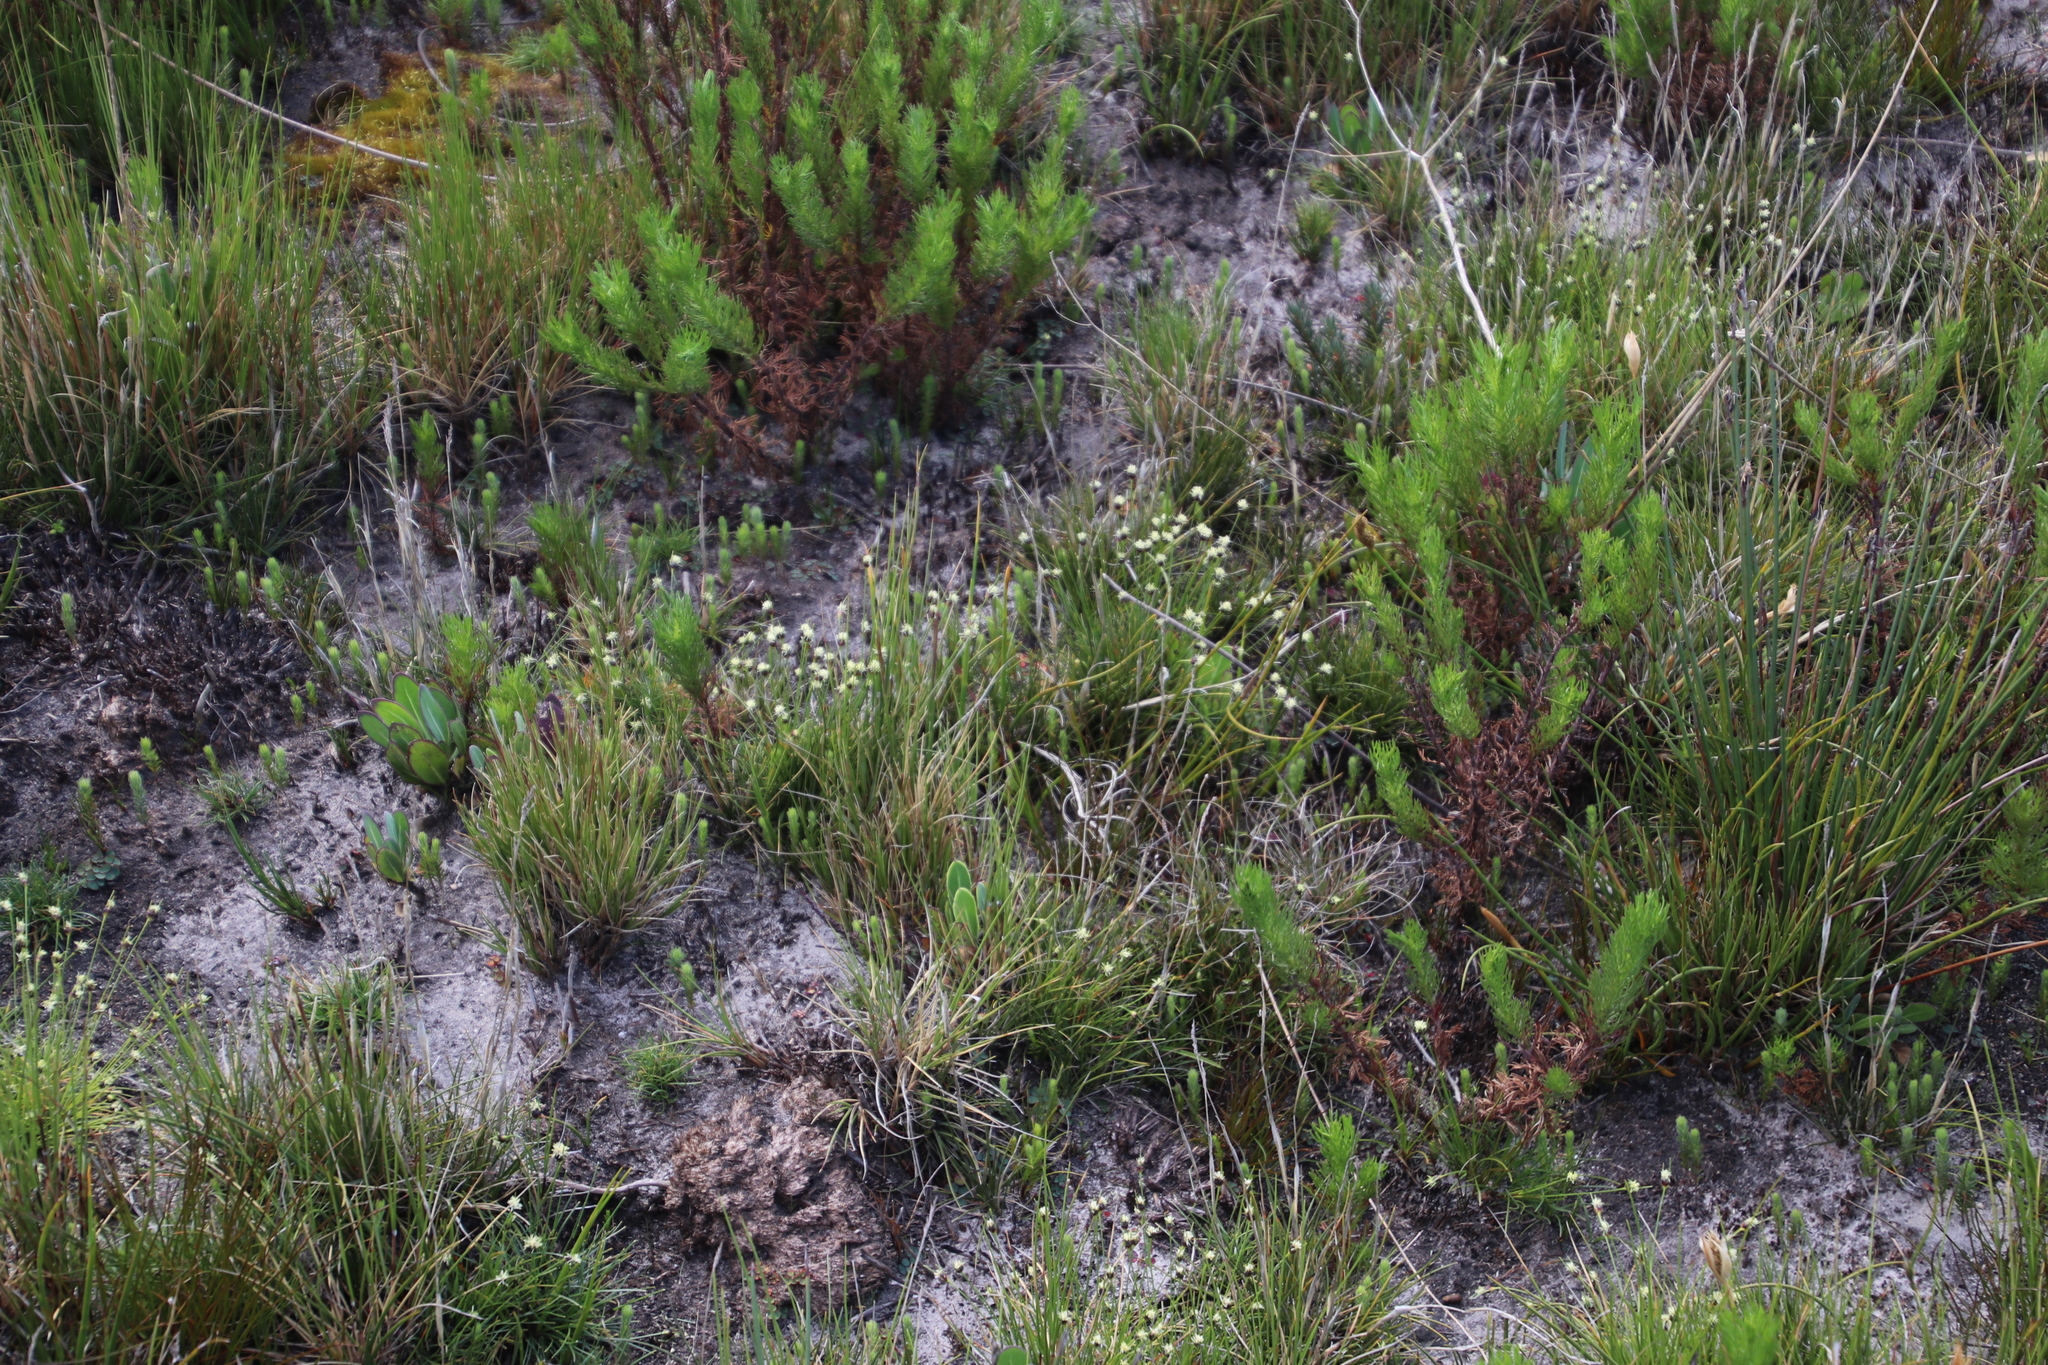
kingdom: Plantae
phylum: Tracheophyta
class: Liliopsida
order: Poales
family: Cyperaceae
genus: Ficinia
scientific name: Ficinia capitella
